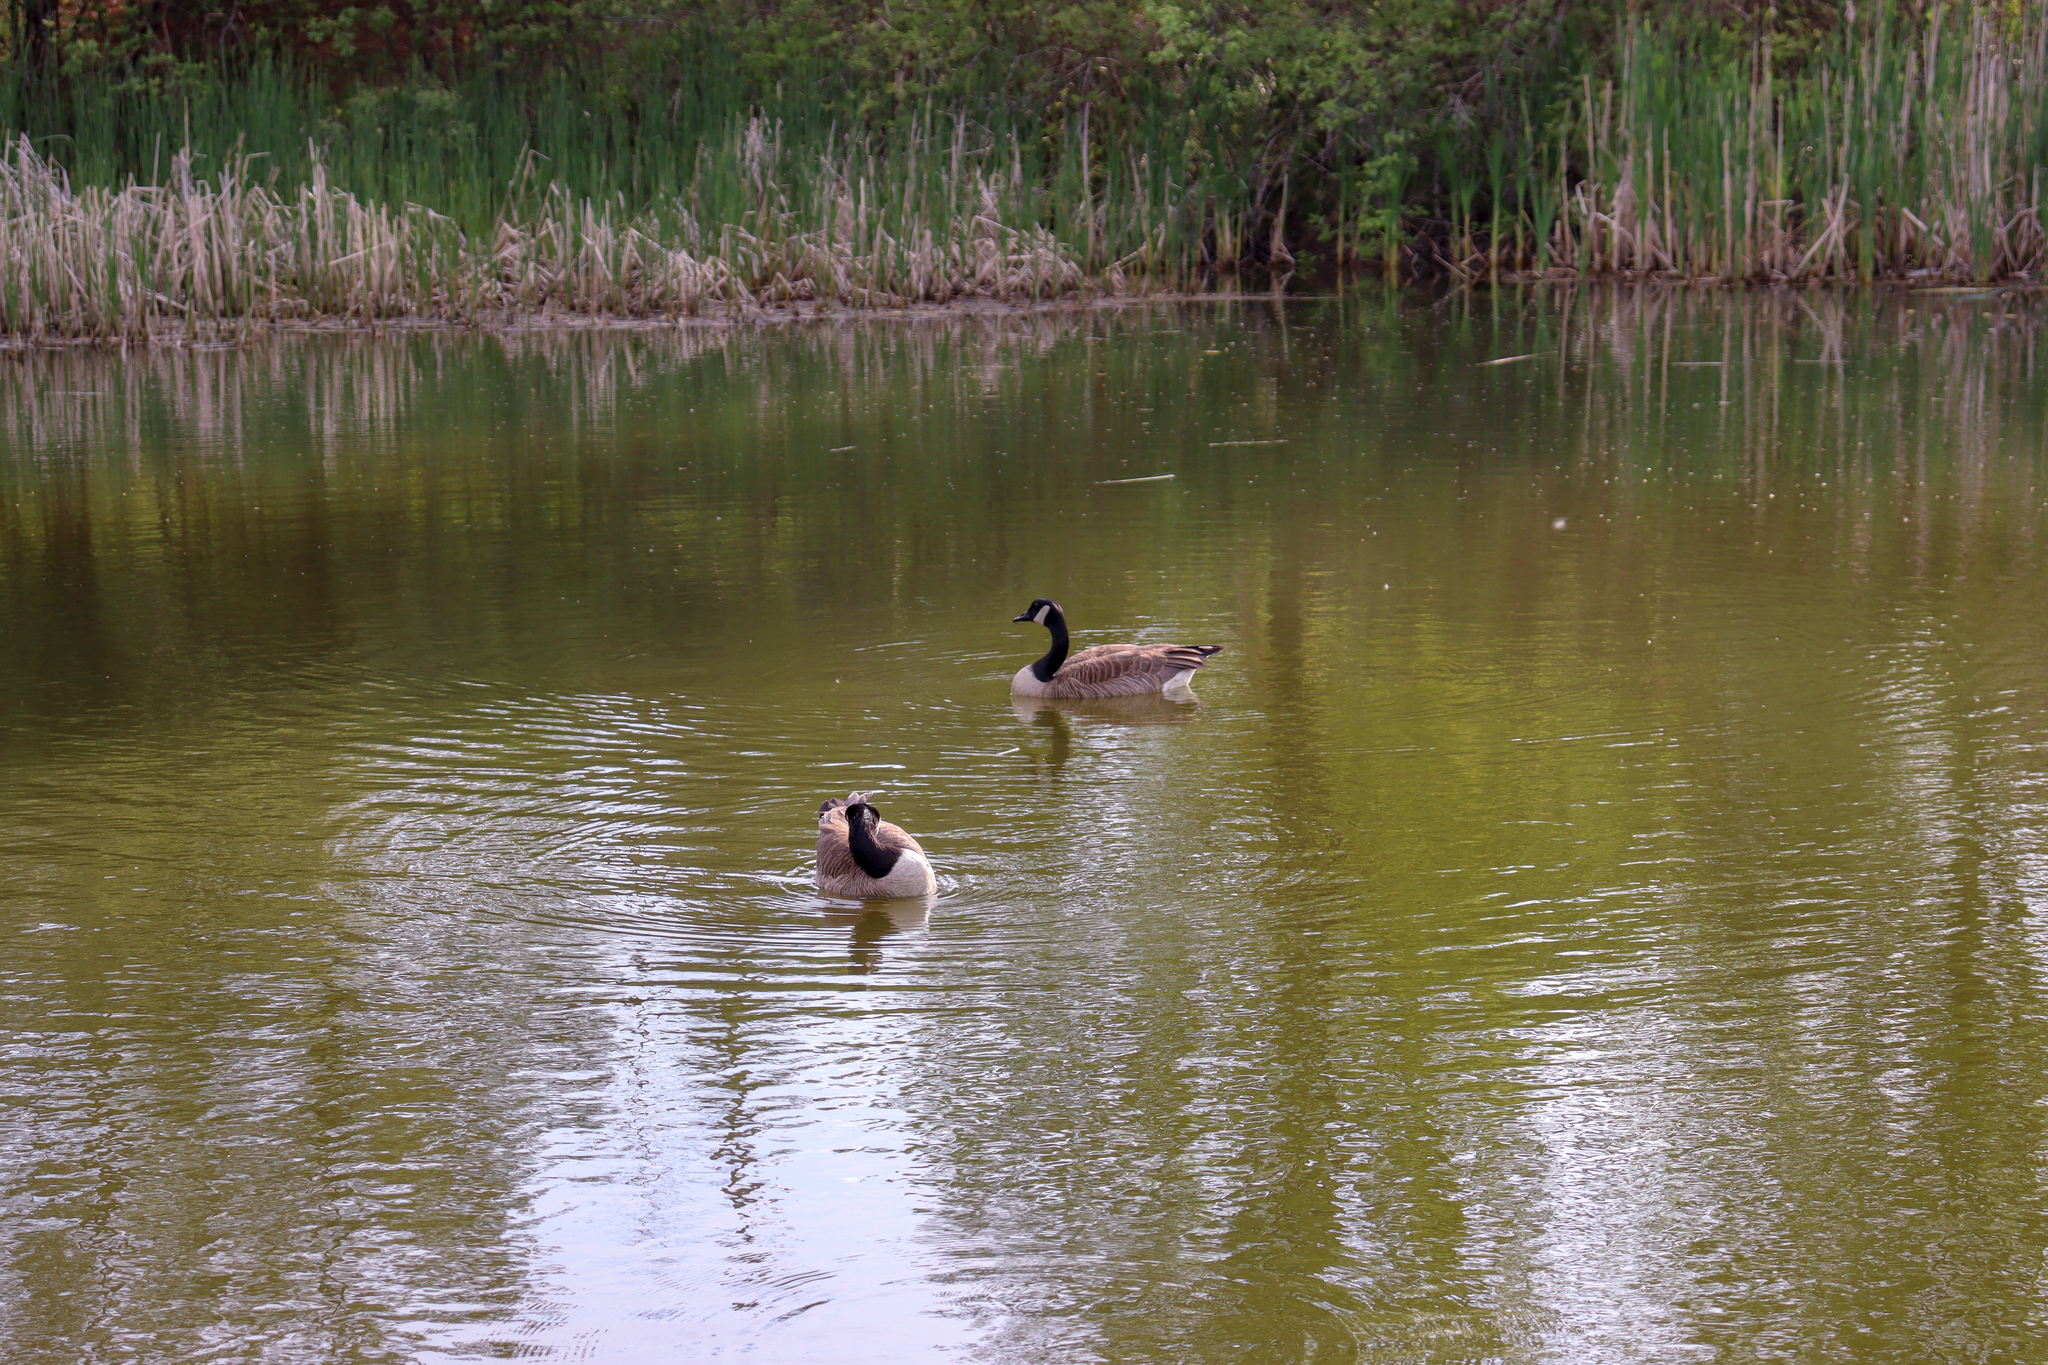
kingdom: Animalia
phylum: Chordata
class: Aves
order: Anseriformes
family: Anatidae
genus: Branta
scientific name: Branta canadensis
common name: Canada goose
